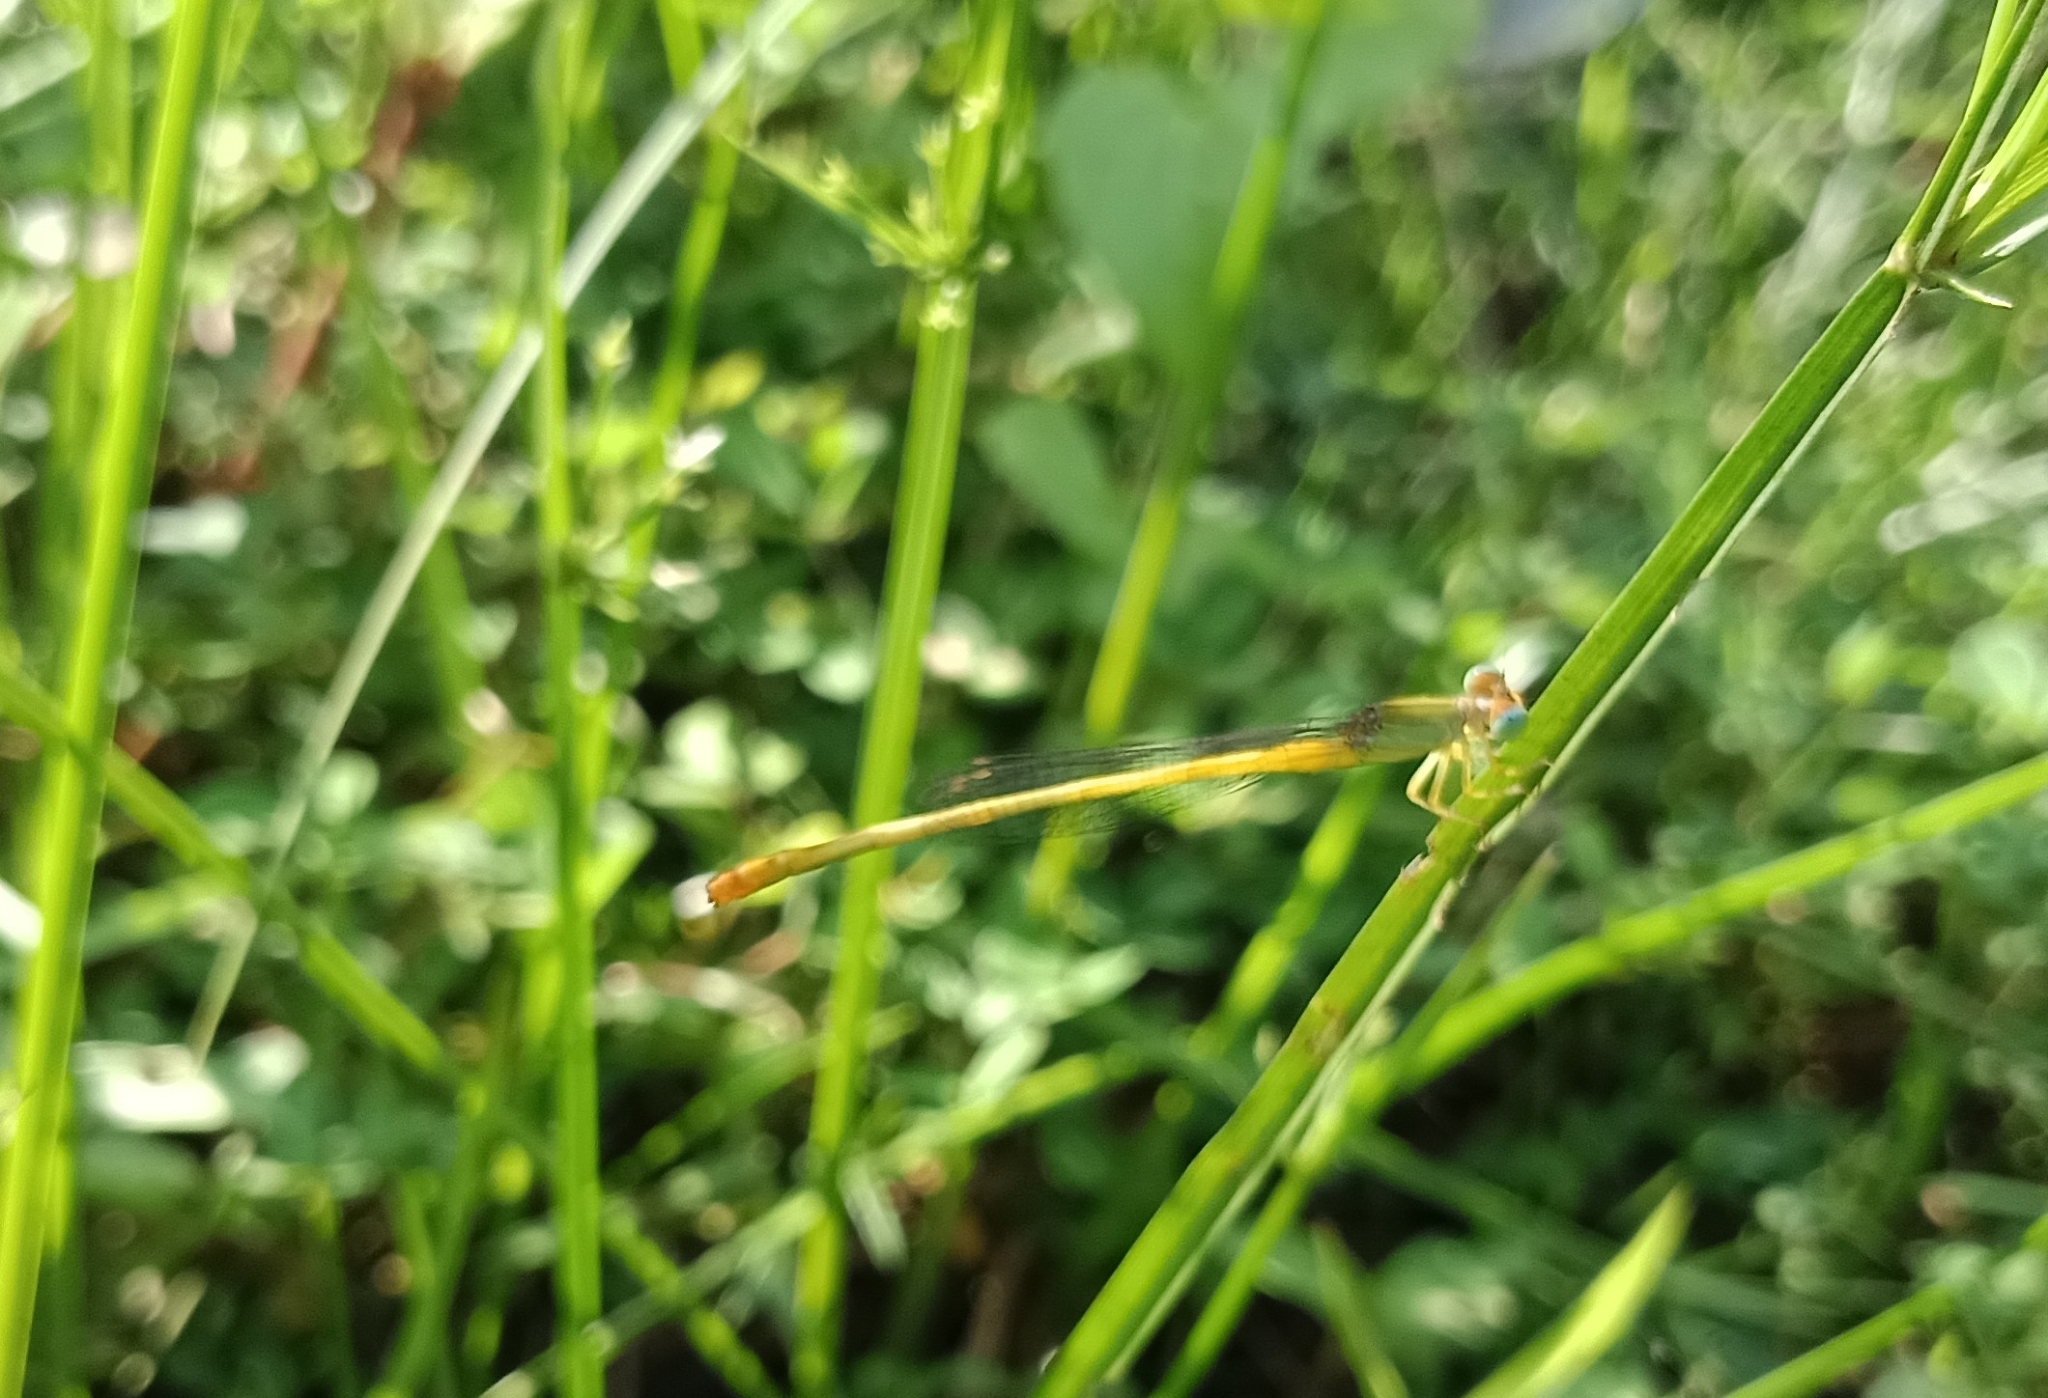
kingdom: Animalia
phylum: Arthropoda
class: Insecta
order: Odonata
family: Coenagrionidae
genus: Ceriagrion
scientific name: Ceriagrion coromandelianum
